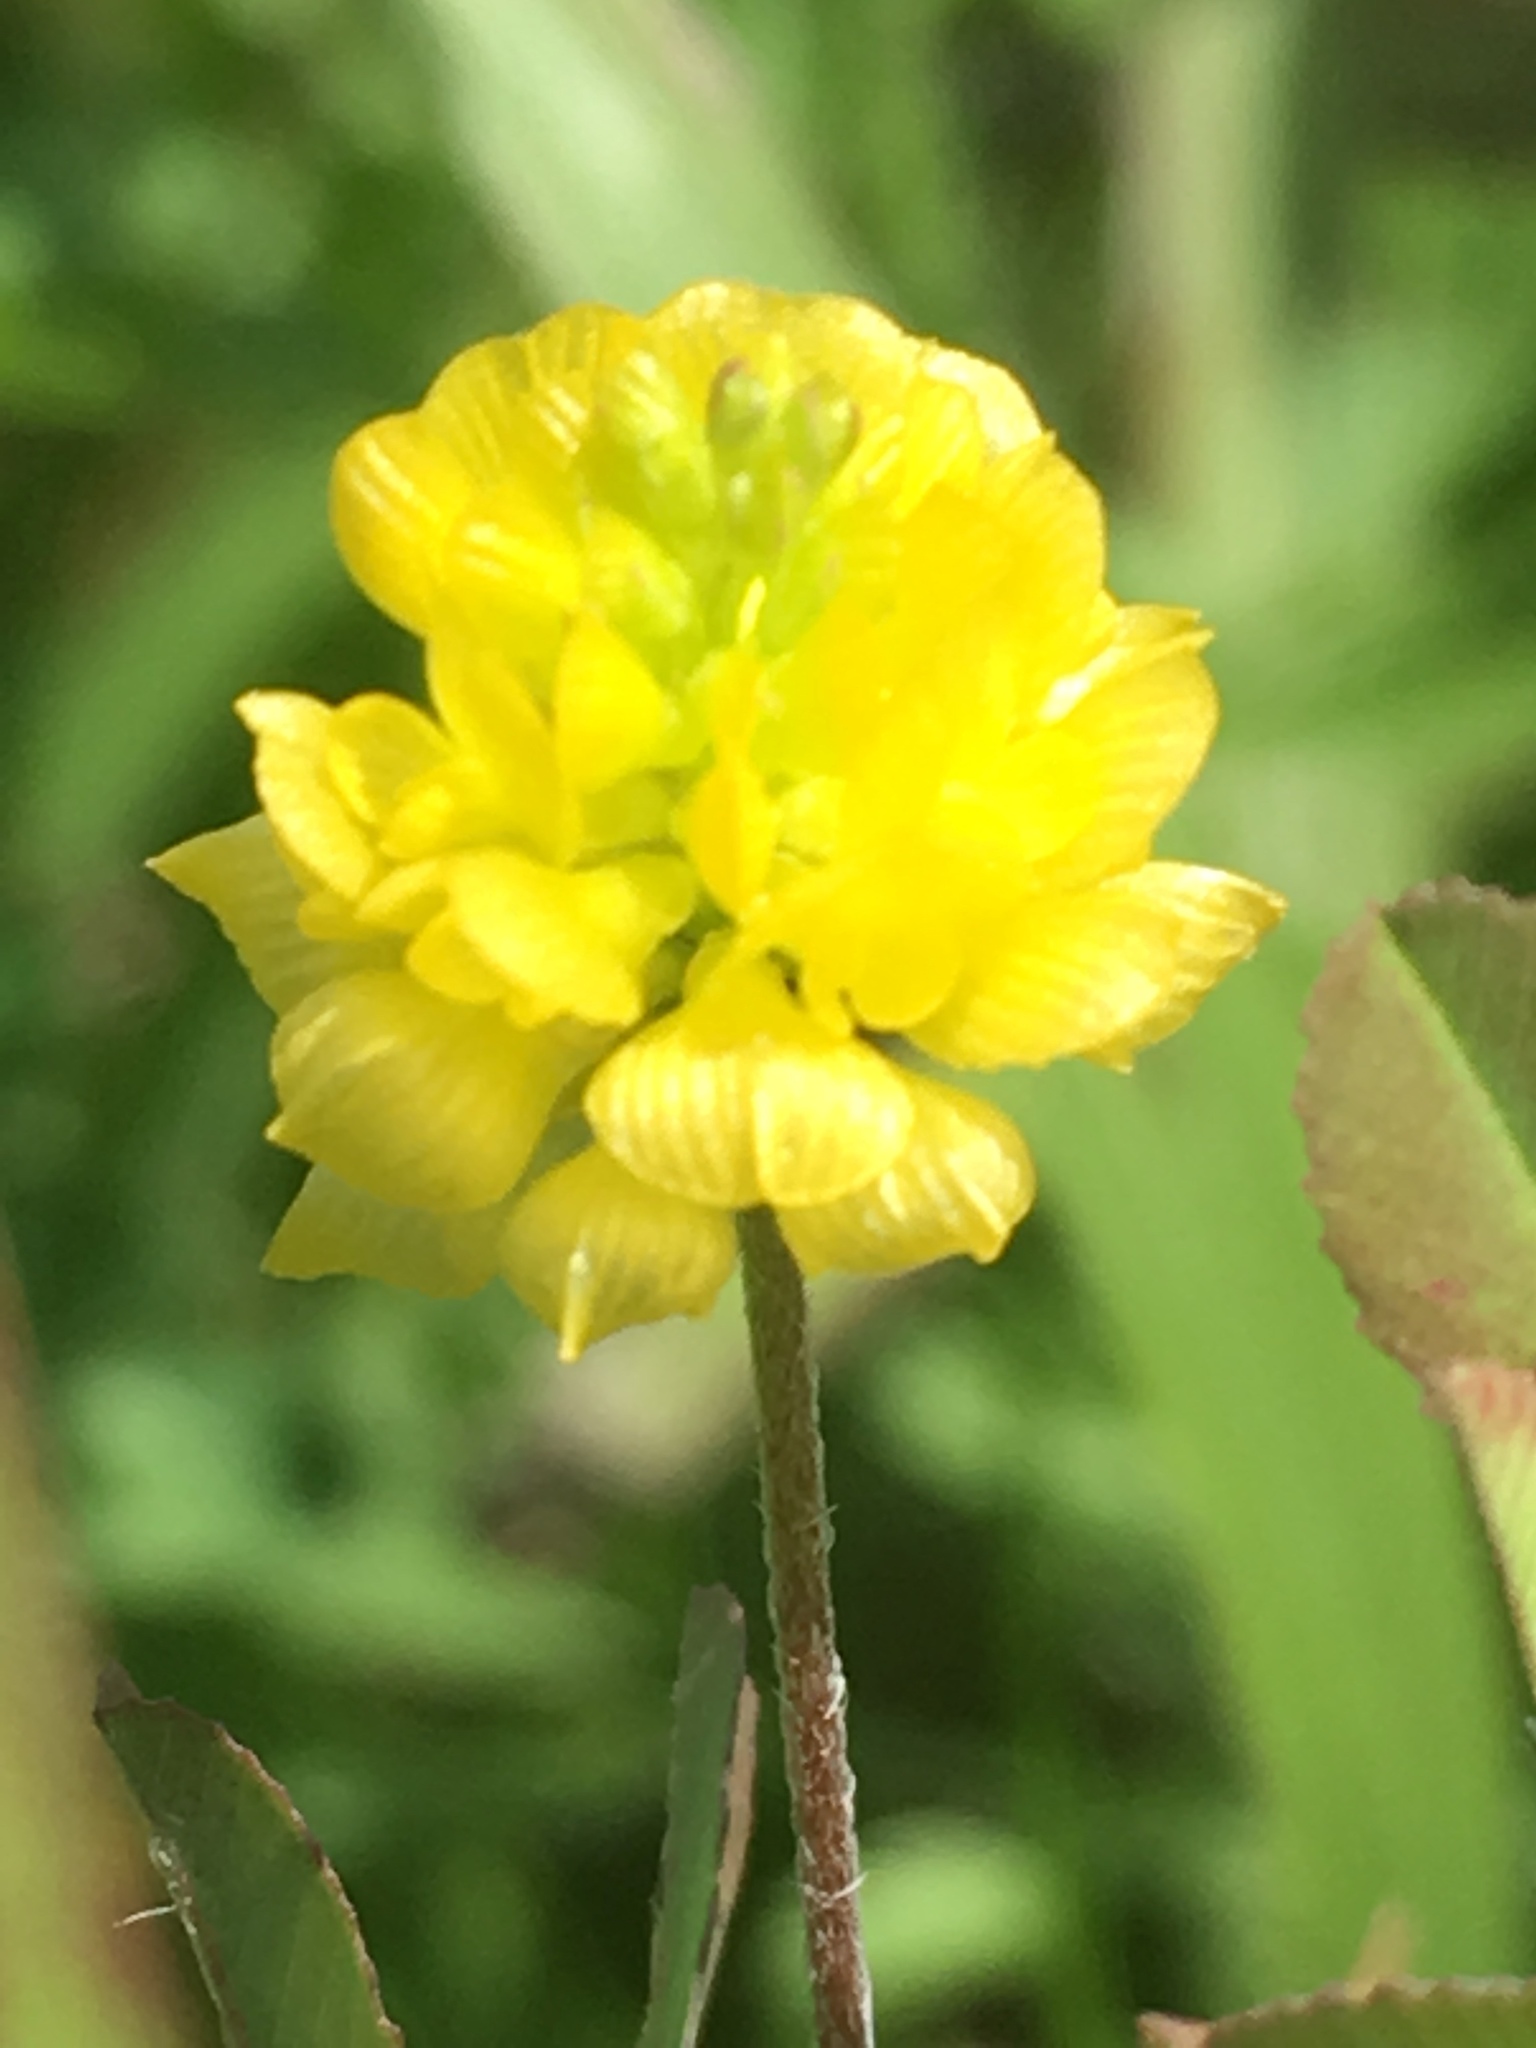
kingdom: Plantae
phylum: Tracheophyta
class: Magnoliopsida
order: Fabales
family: Fabaceae
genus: Trifolium
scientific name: Trifolium campestre
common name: Field clover
